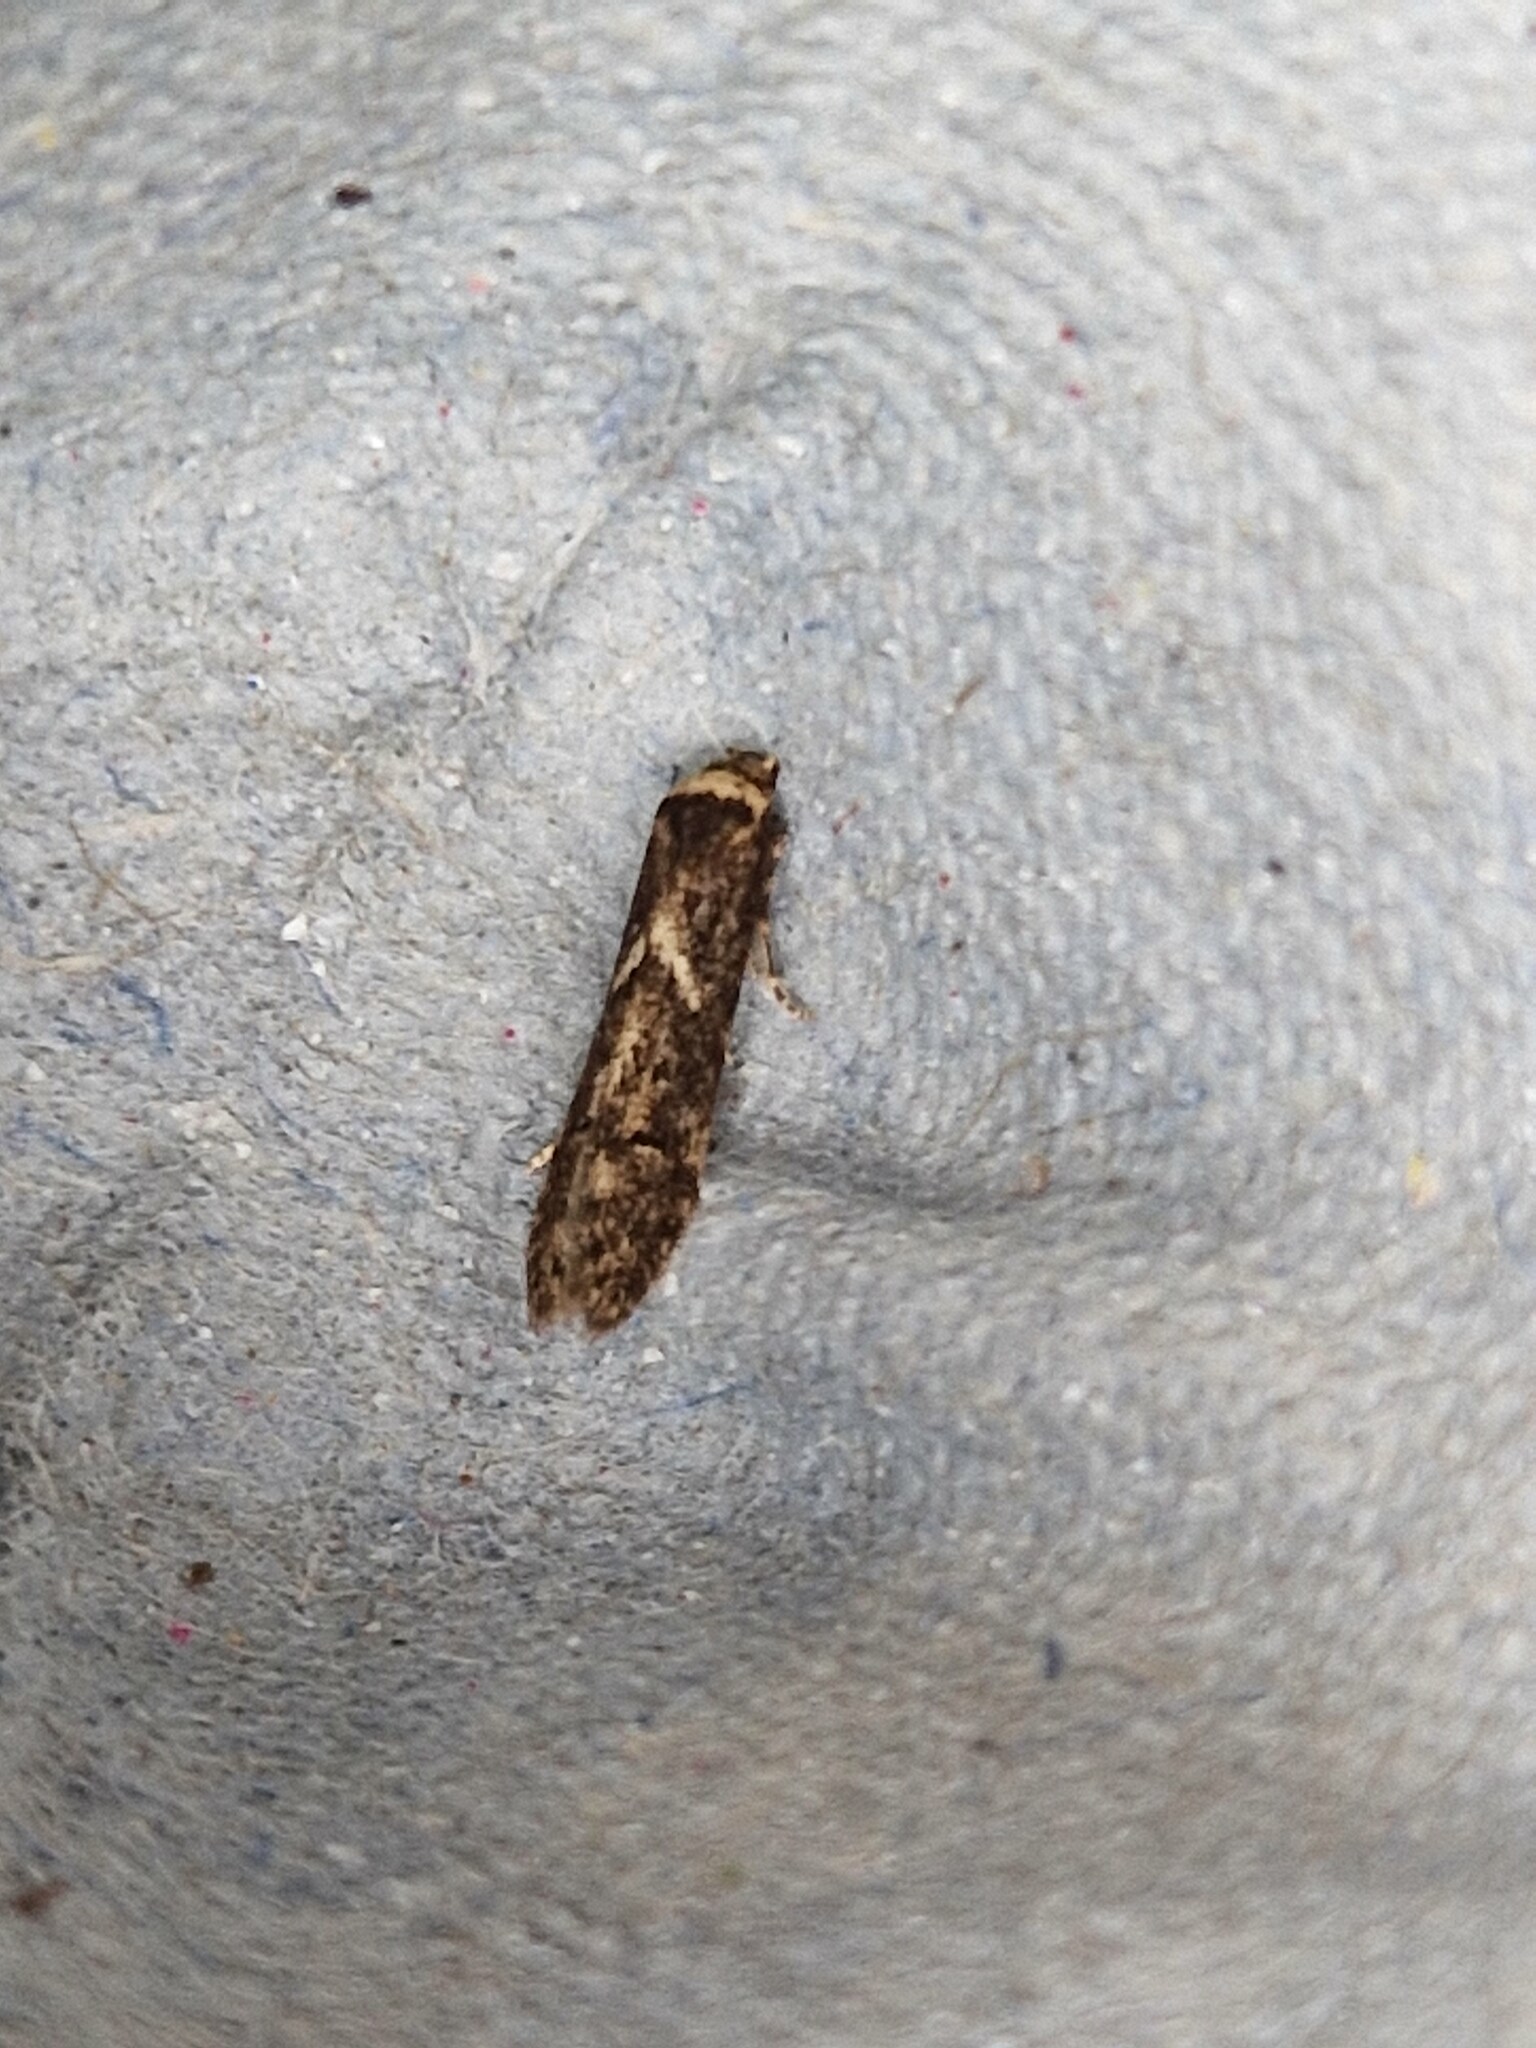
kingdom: Animalia
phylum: Arthropoda
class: Insecta
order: Lepidoptera
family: Blastobasidae
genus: Blastobasis
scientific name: Blastobasis adustella
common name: Dingy dowd
